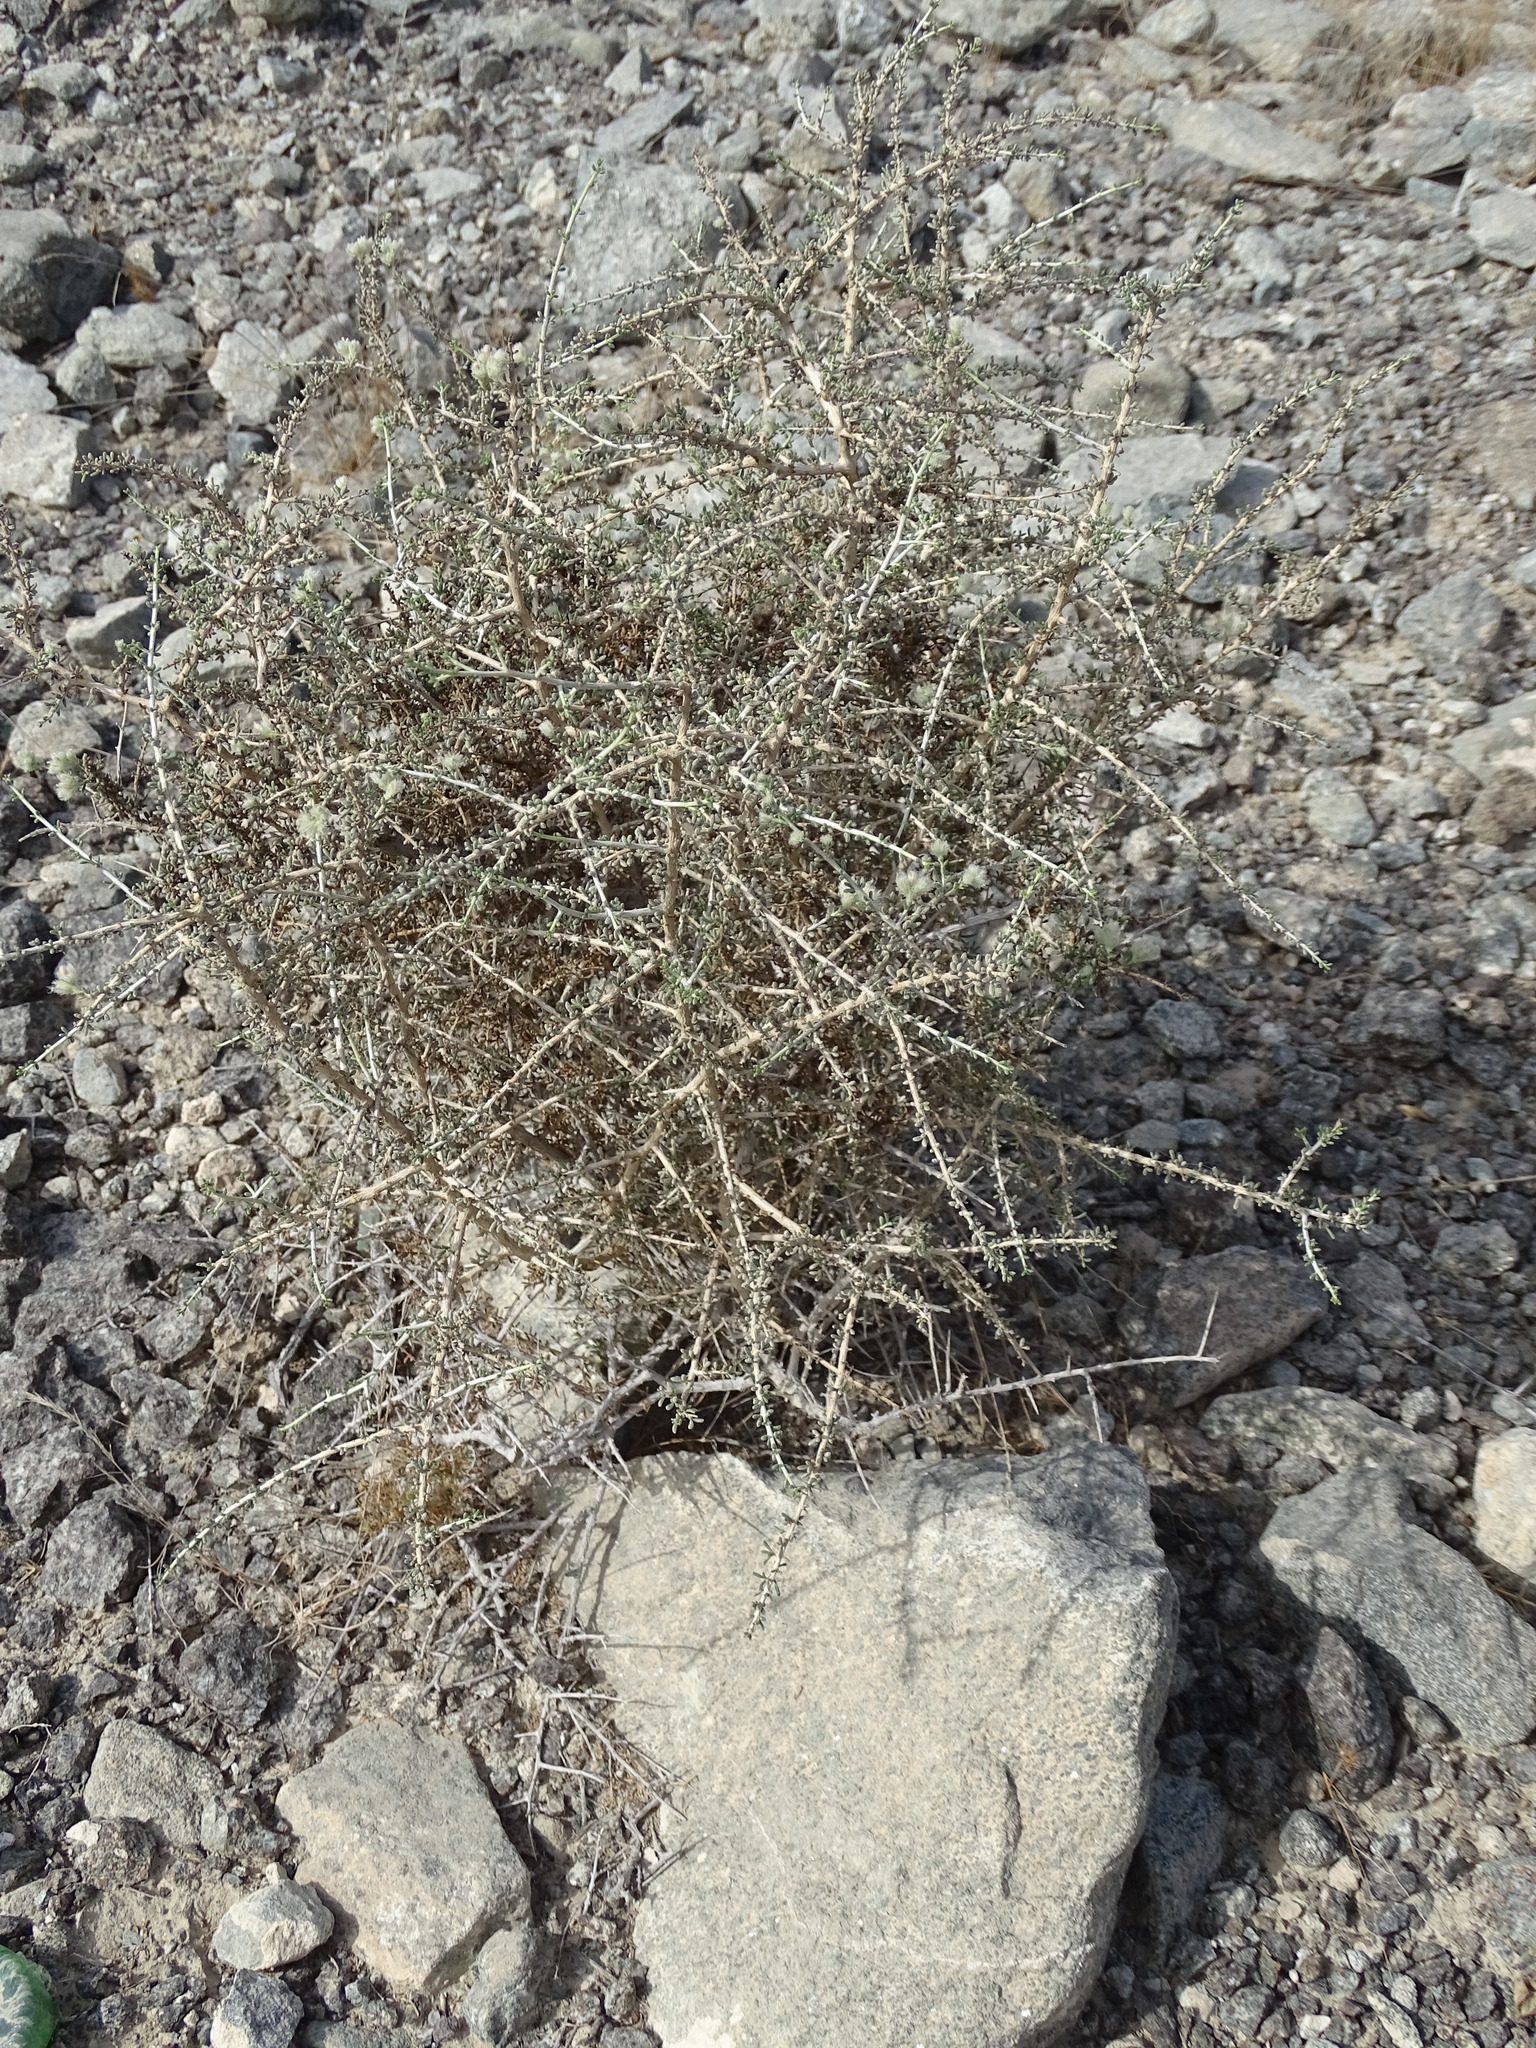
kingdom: Plantae
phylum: Tracheophyta
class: Magnoliopsida
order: Gentianales
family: Rubiaceae
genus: Plocama
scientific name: Plocama aucheri
